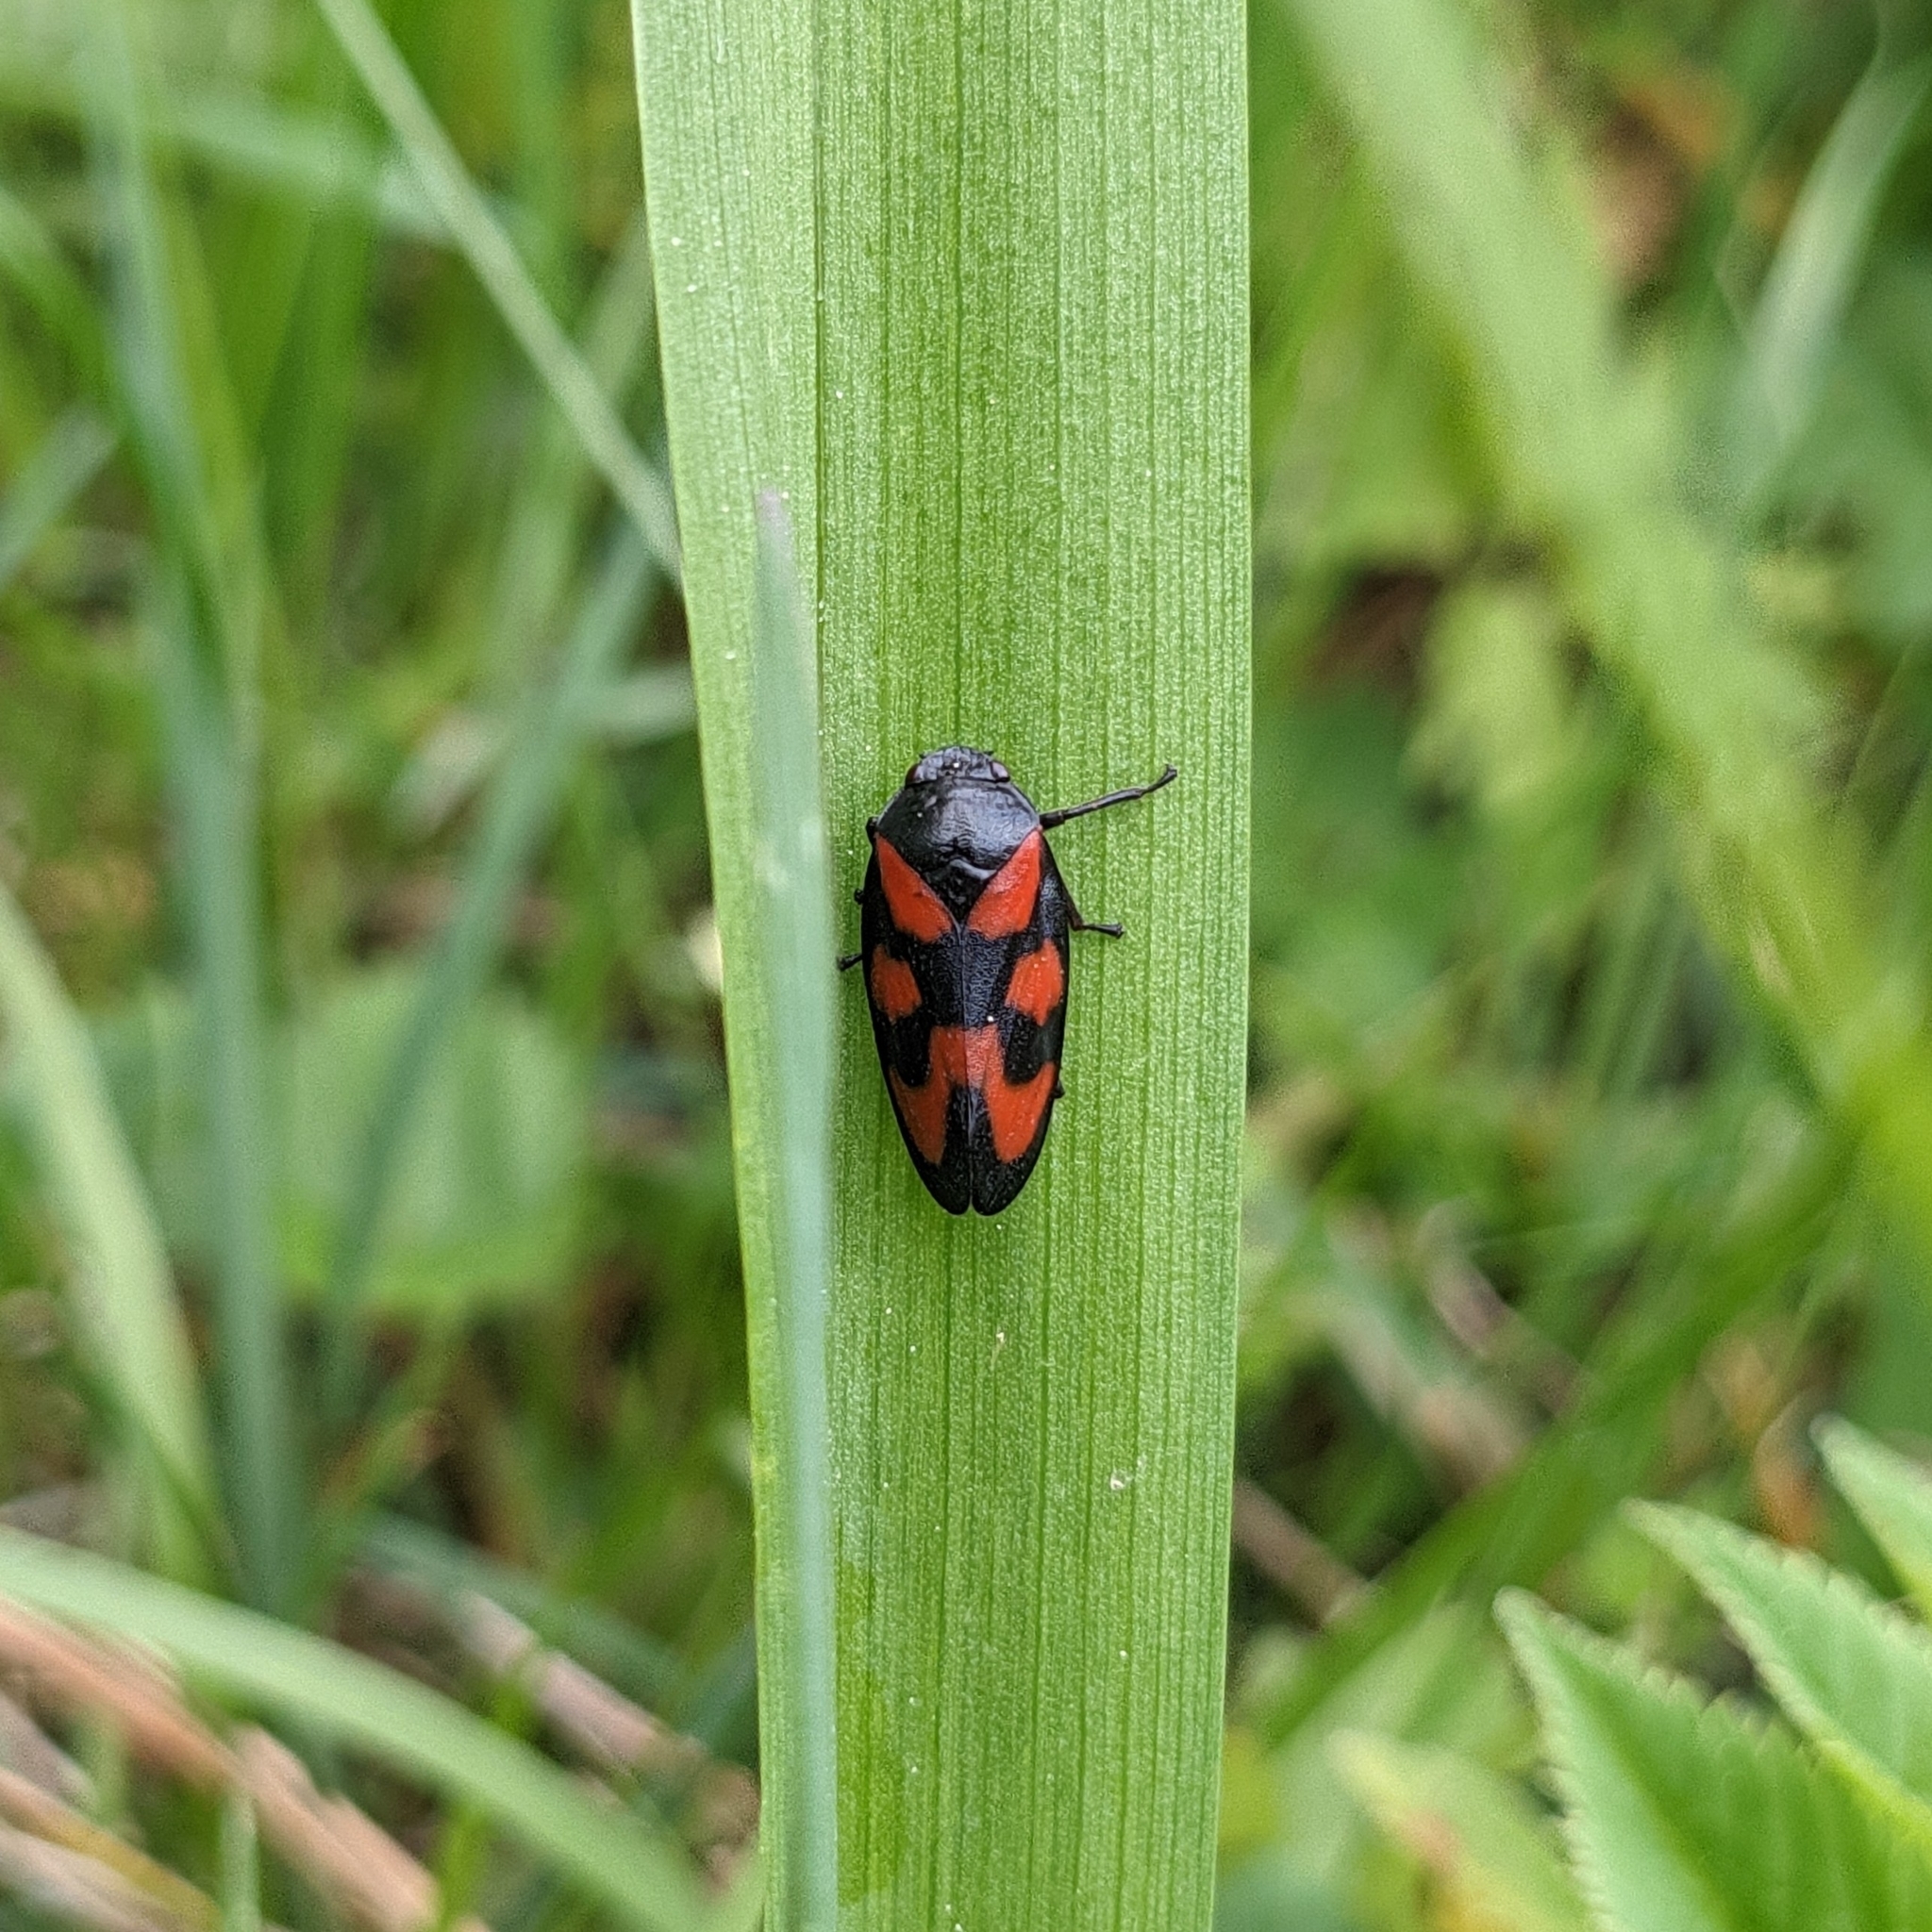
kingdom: Animalia
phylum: Arthropoda
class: Insecta
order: Hemiptera
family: Cercopidae
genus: Cercopis
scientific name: Cercopis vulnerata
